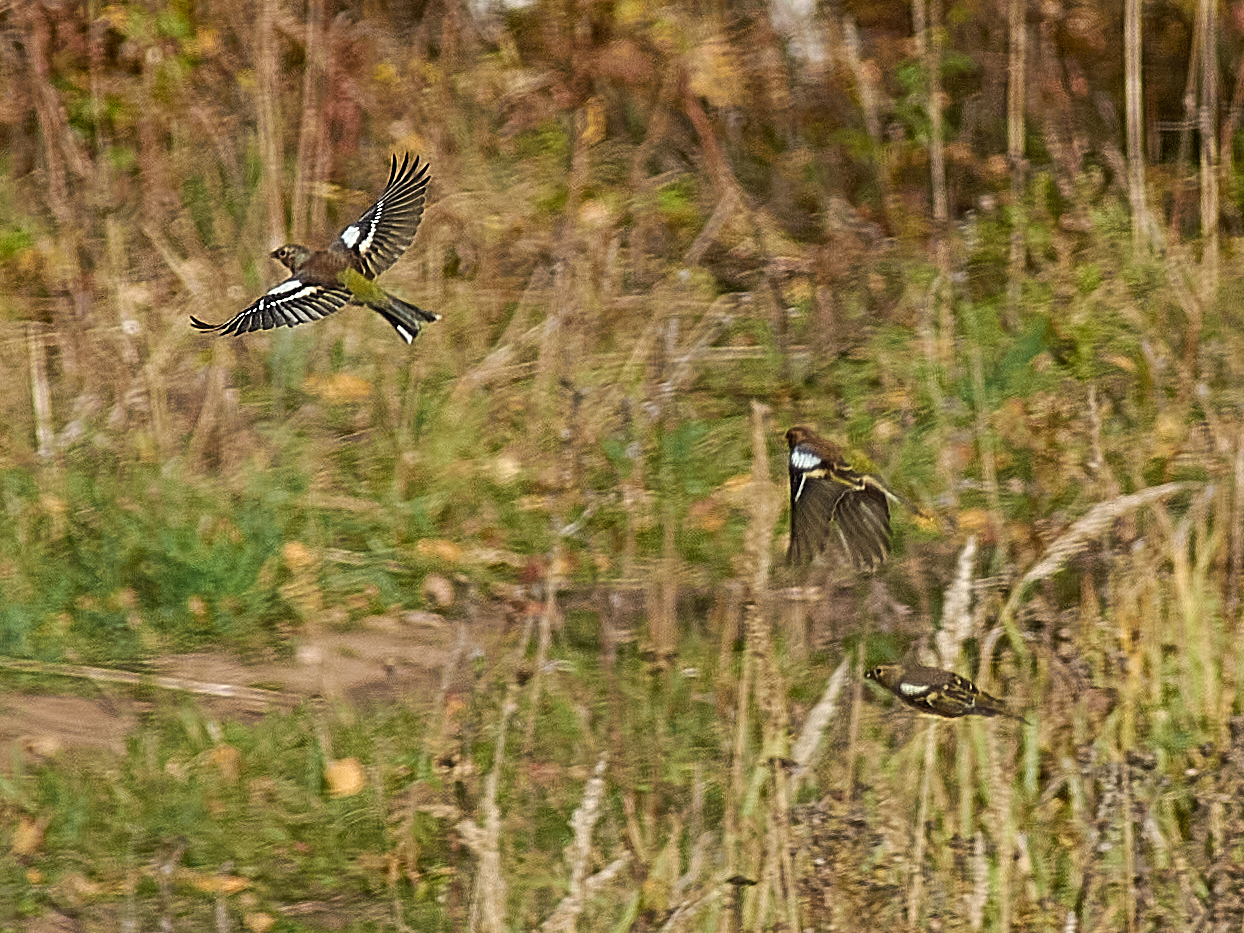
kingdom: Animalia
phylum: Chordata
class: Aves
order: Passeriformes
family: Fringillidae
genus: Fringilla
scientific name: Fringilla coelebs
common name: Common chaffinch
